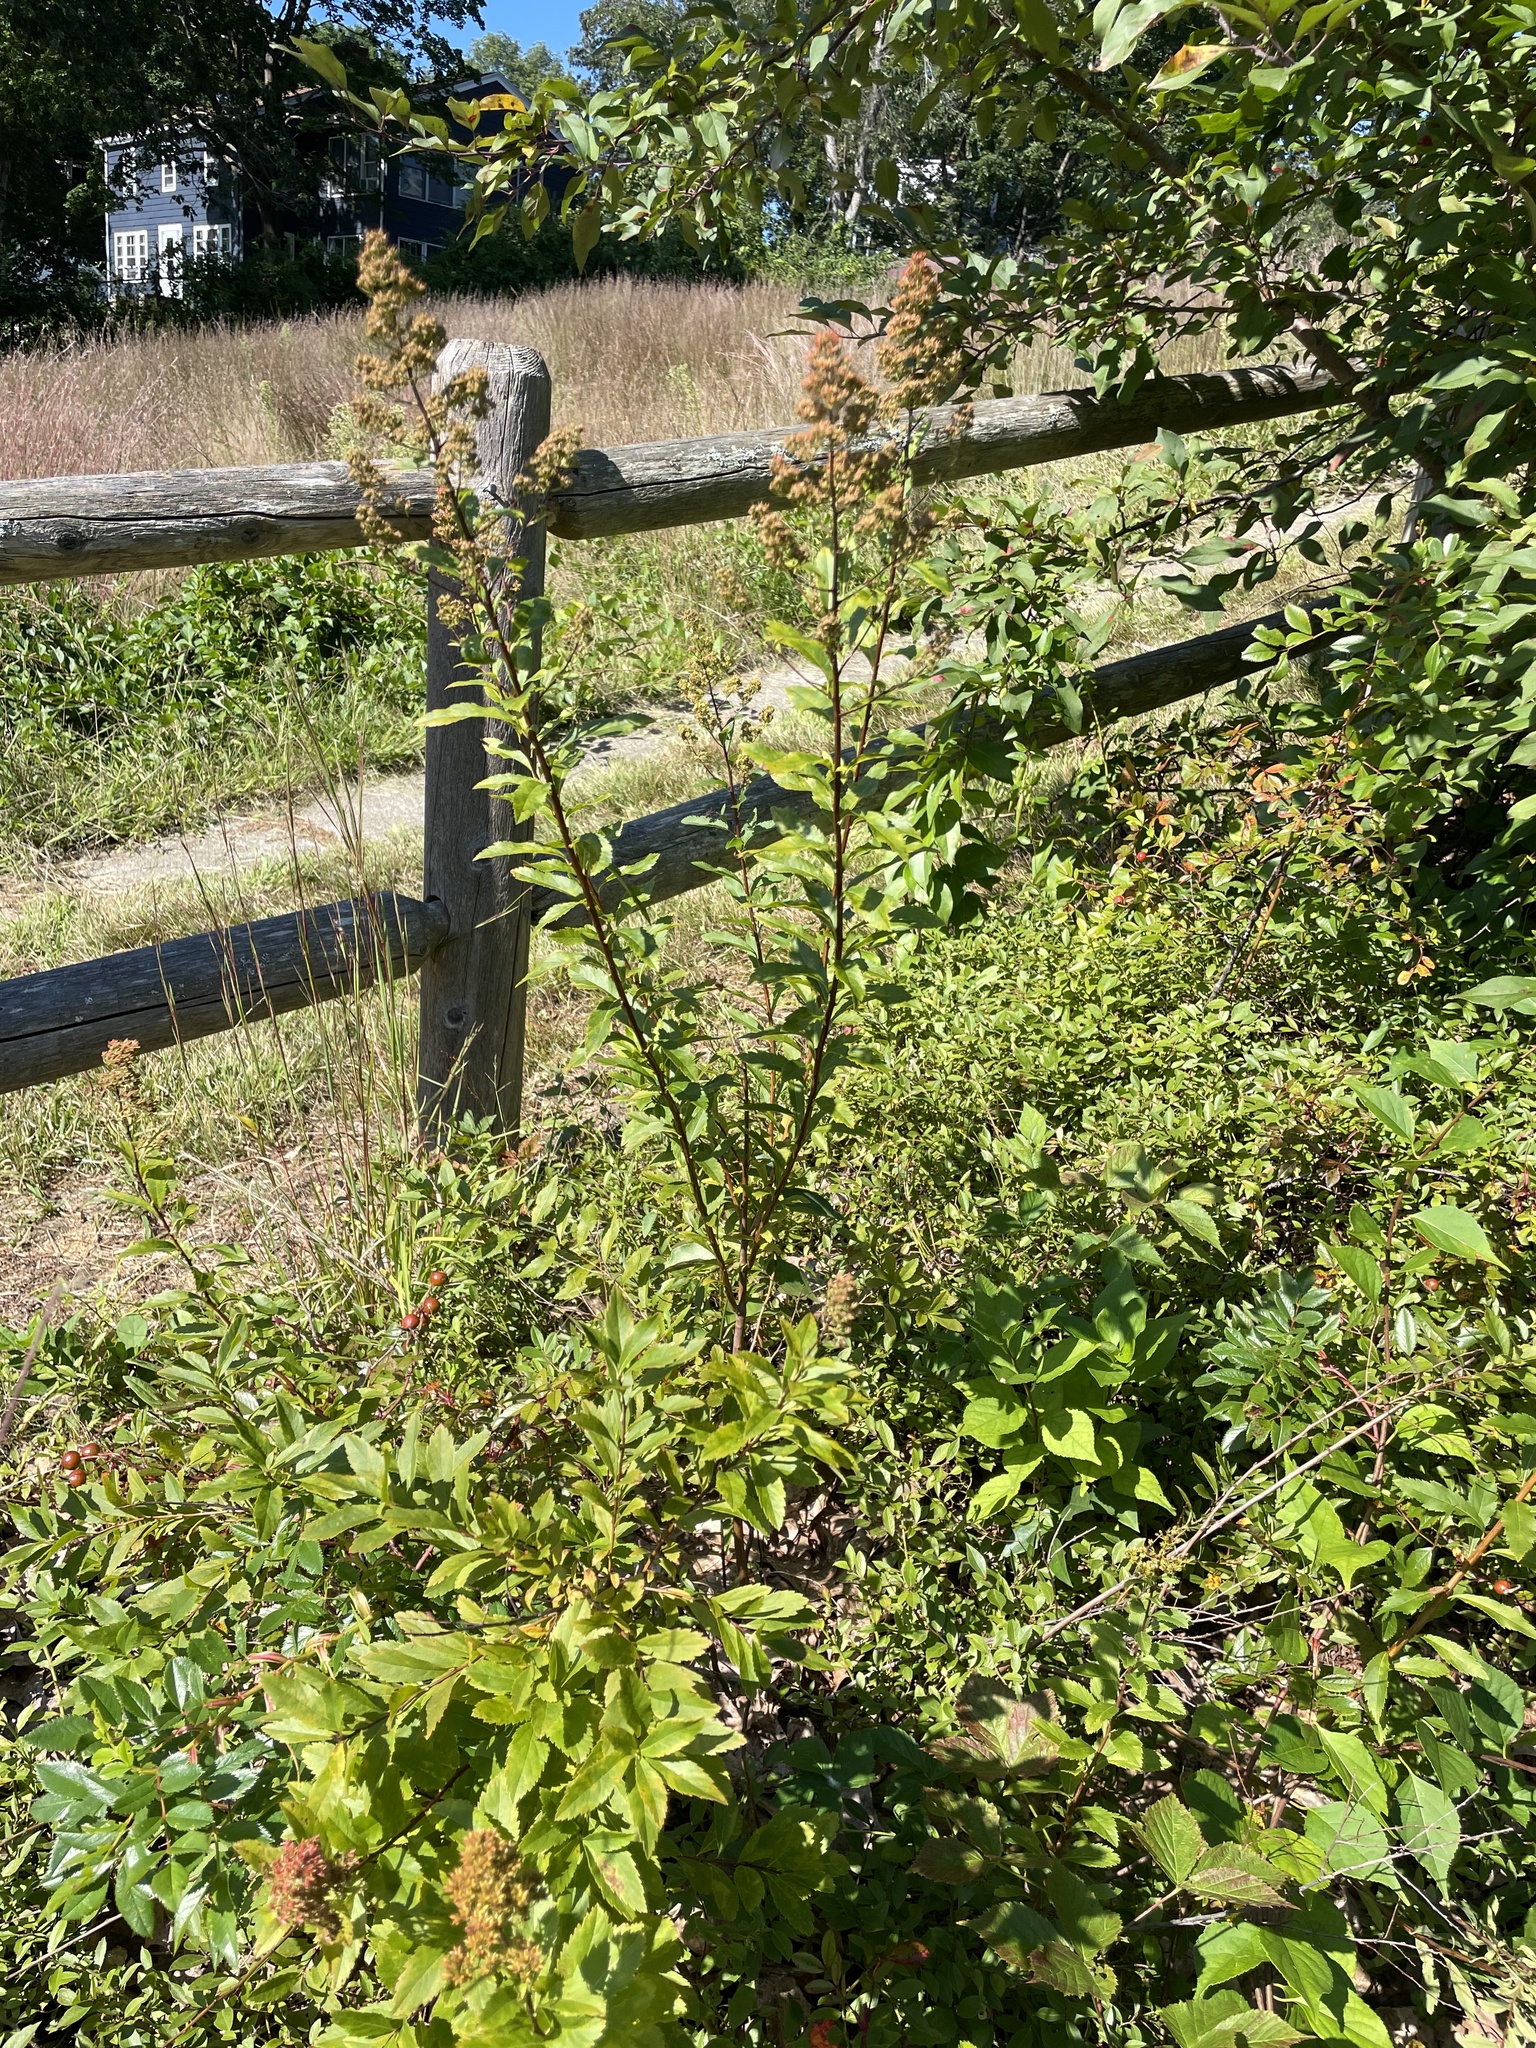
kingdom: Plantae
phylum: Tracheophyta
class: Magnoliopsida
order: Rosales
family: Rosaceae
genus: Spiraea
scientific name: Spiraea alba
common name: Pale bridewort
